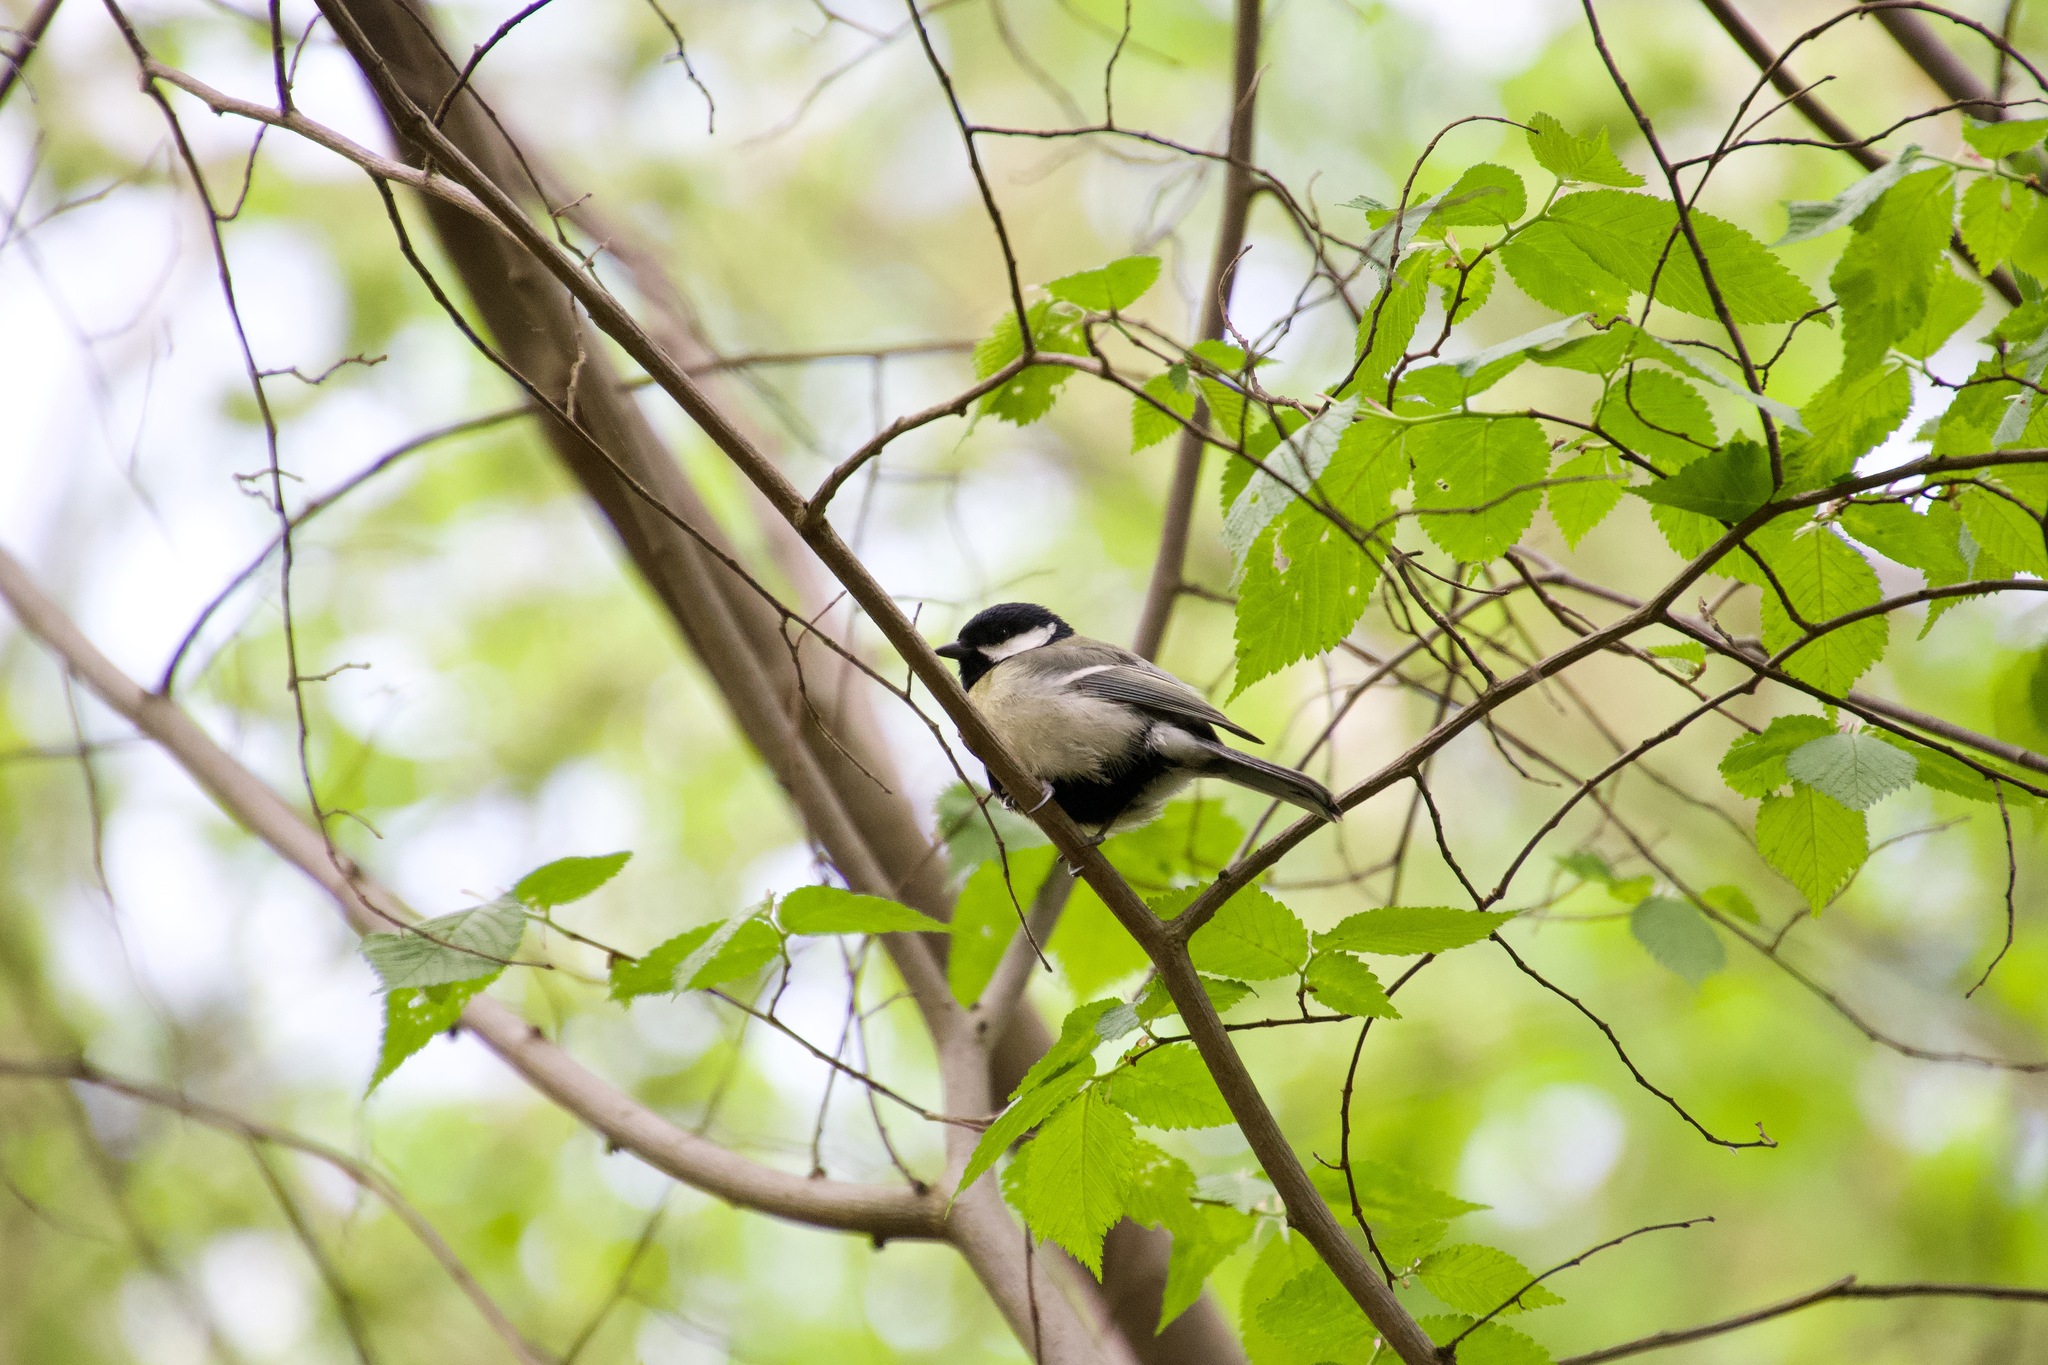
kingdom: Animalia
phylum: Chordata
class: Aves
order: Passeriformes
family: Paridae
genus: Parus
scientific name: Parus major
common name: Great tit
